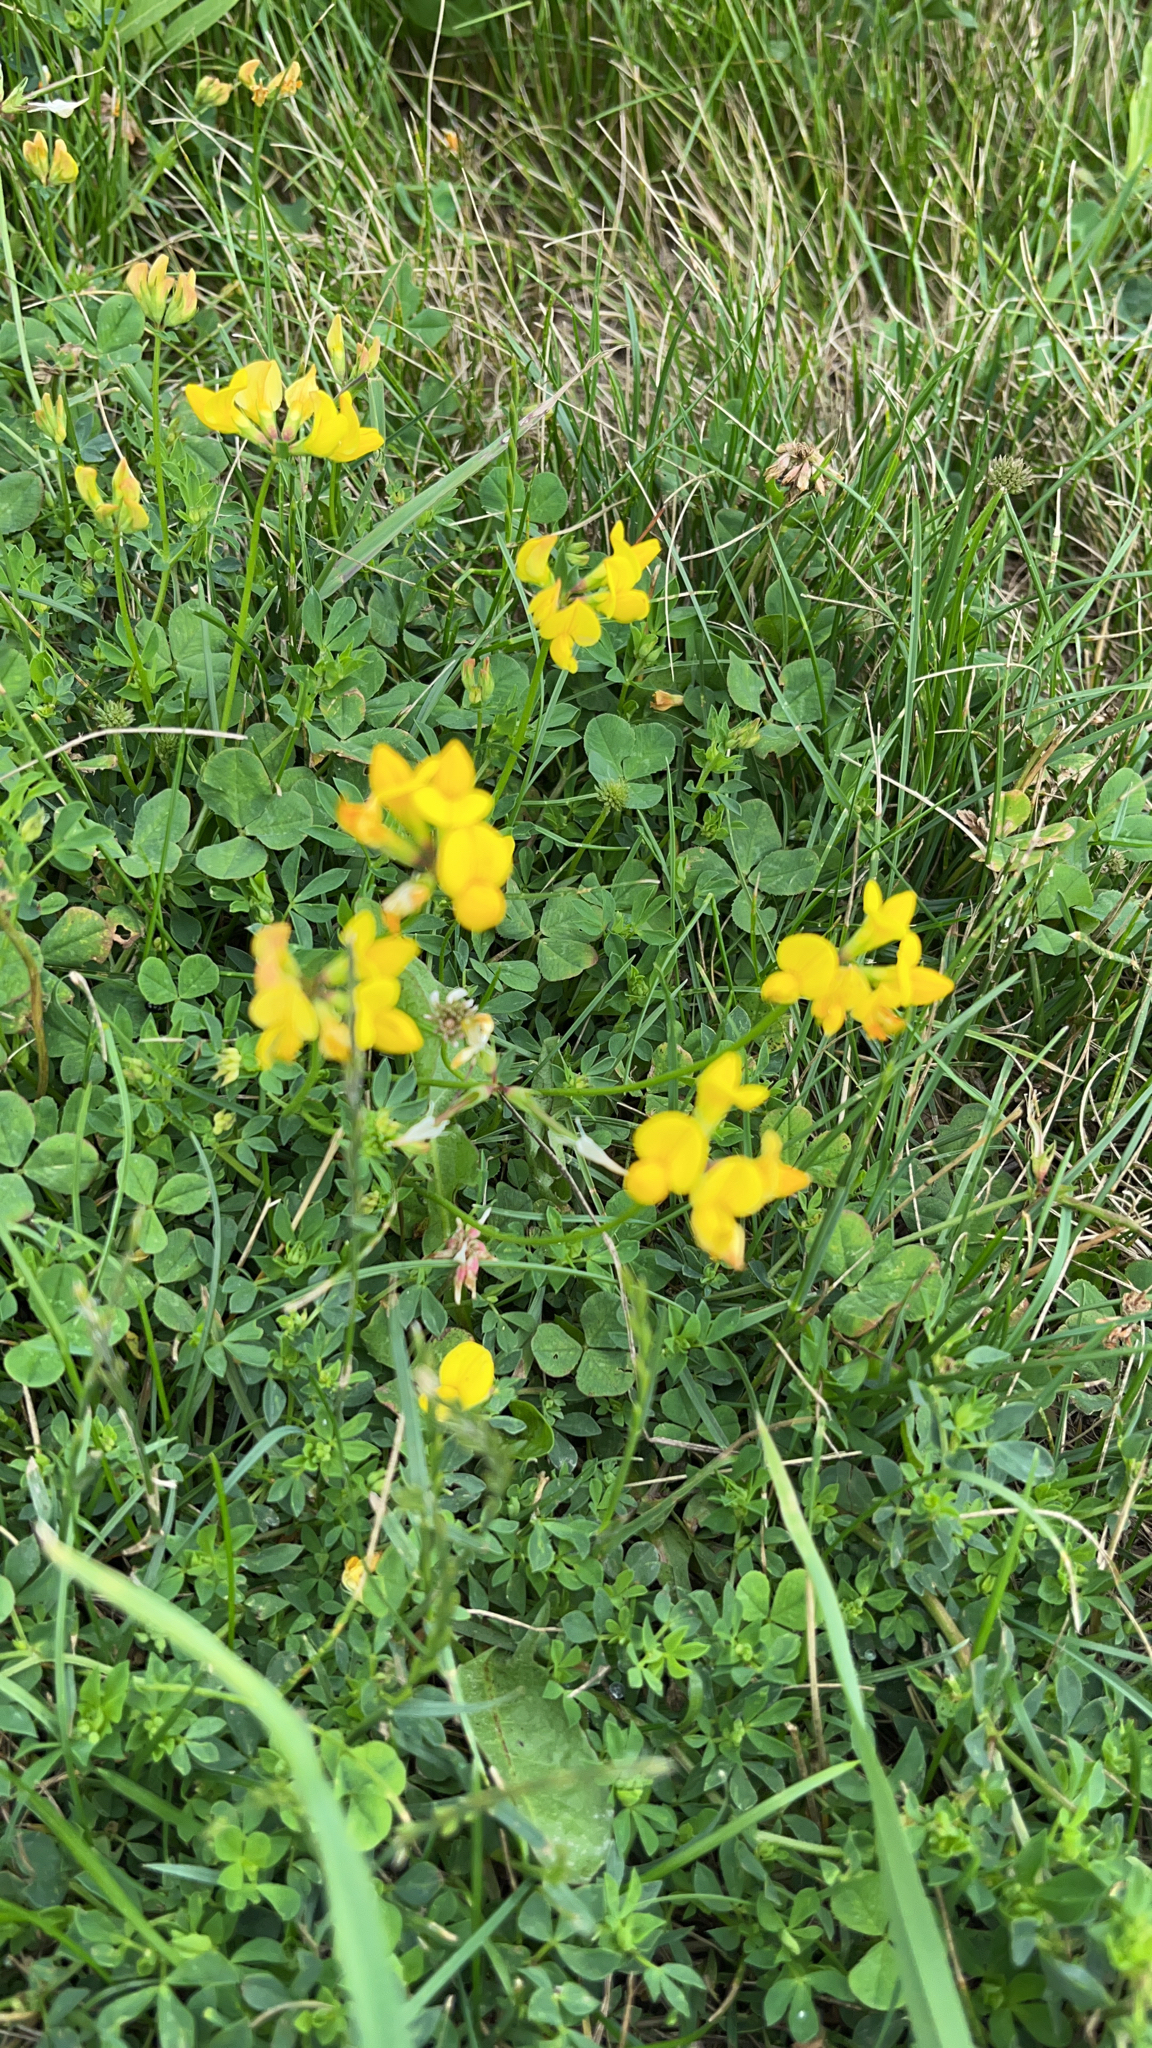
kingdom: Plantae
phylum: Tracheophyta
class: Magnoliopsida
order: Fabales
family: Fabaceae
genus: Lotus
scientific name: Lotus corniculatus
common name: Common bird's-foot-trefoil
